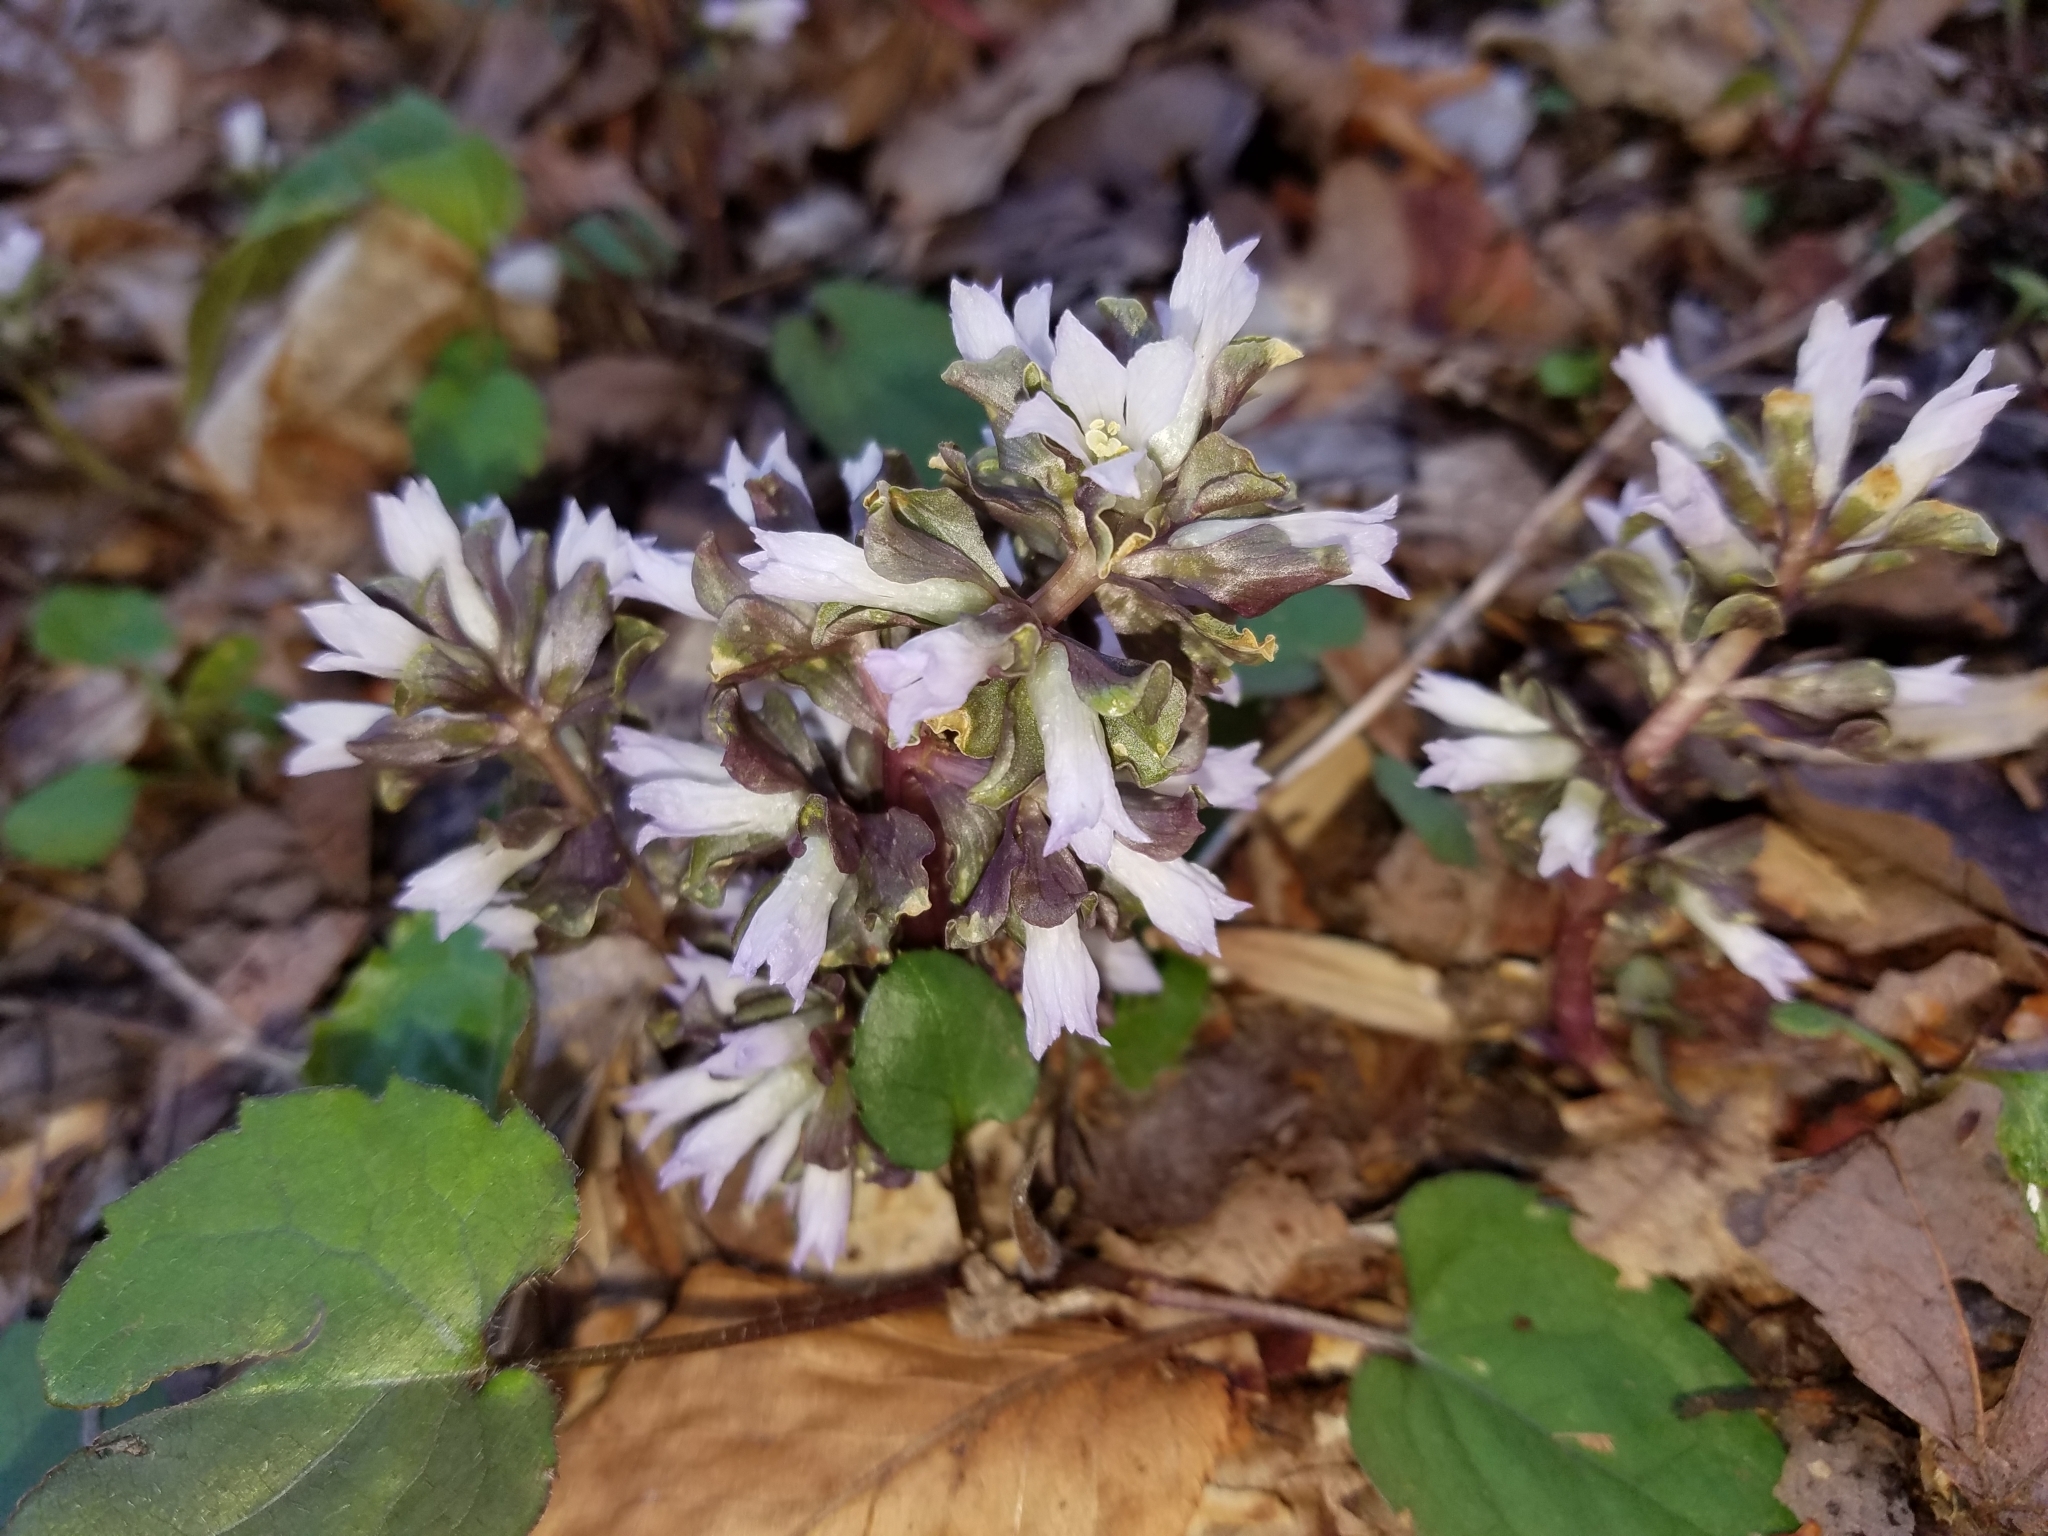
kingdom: Plantae
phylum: Tracheophyta
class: Magnoliopsida
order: Gentianales
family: Gentianaceae
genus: Obolaria
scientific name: Obolaria virginica
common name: Pennywort
